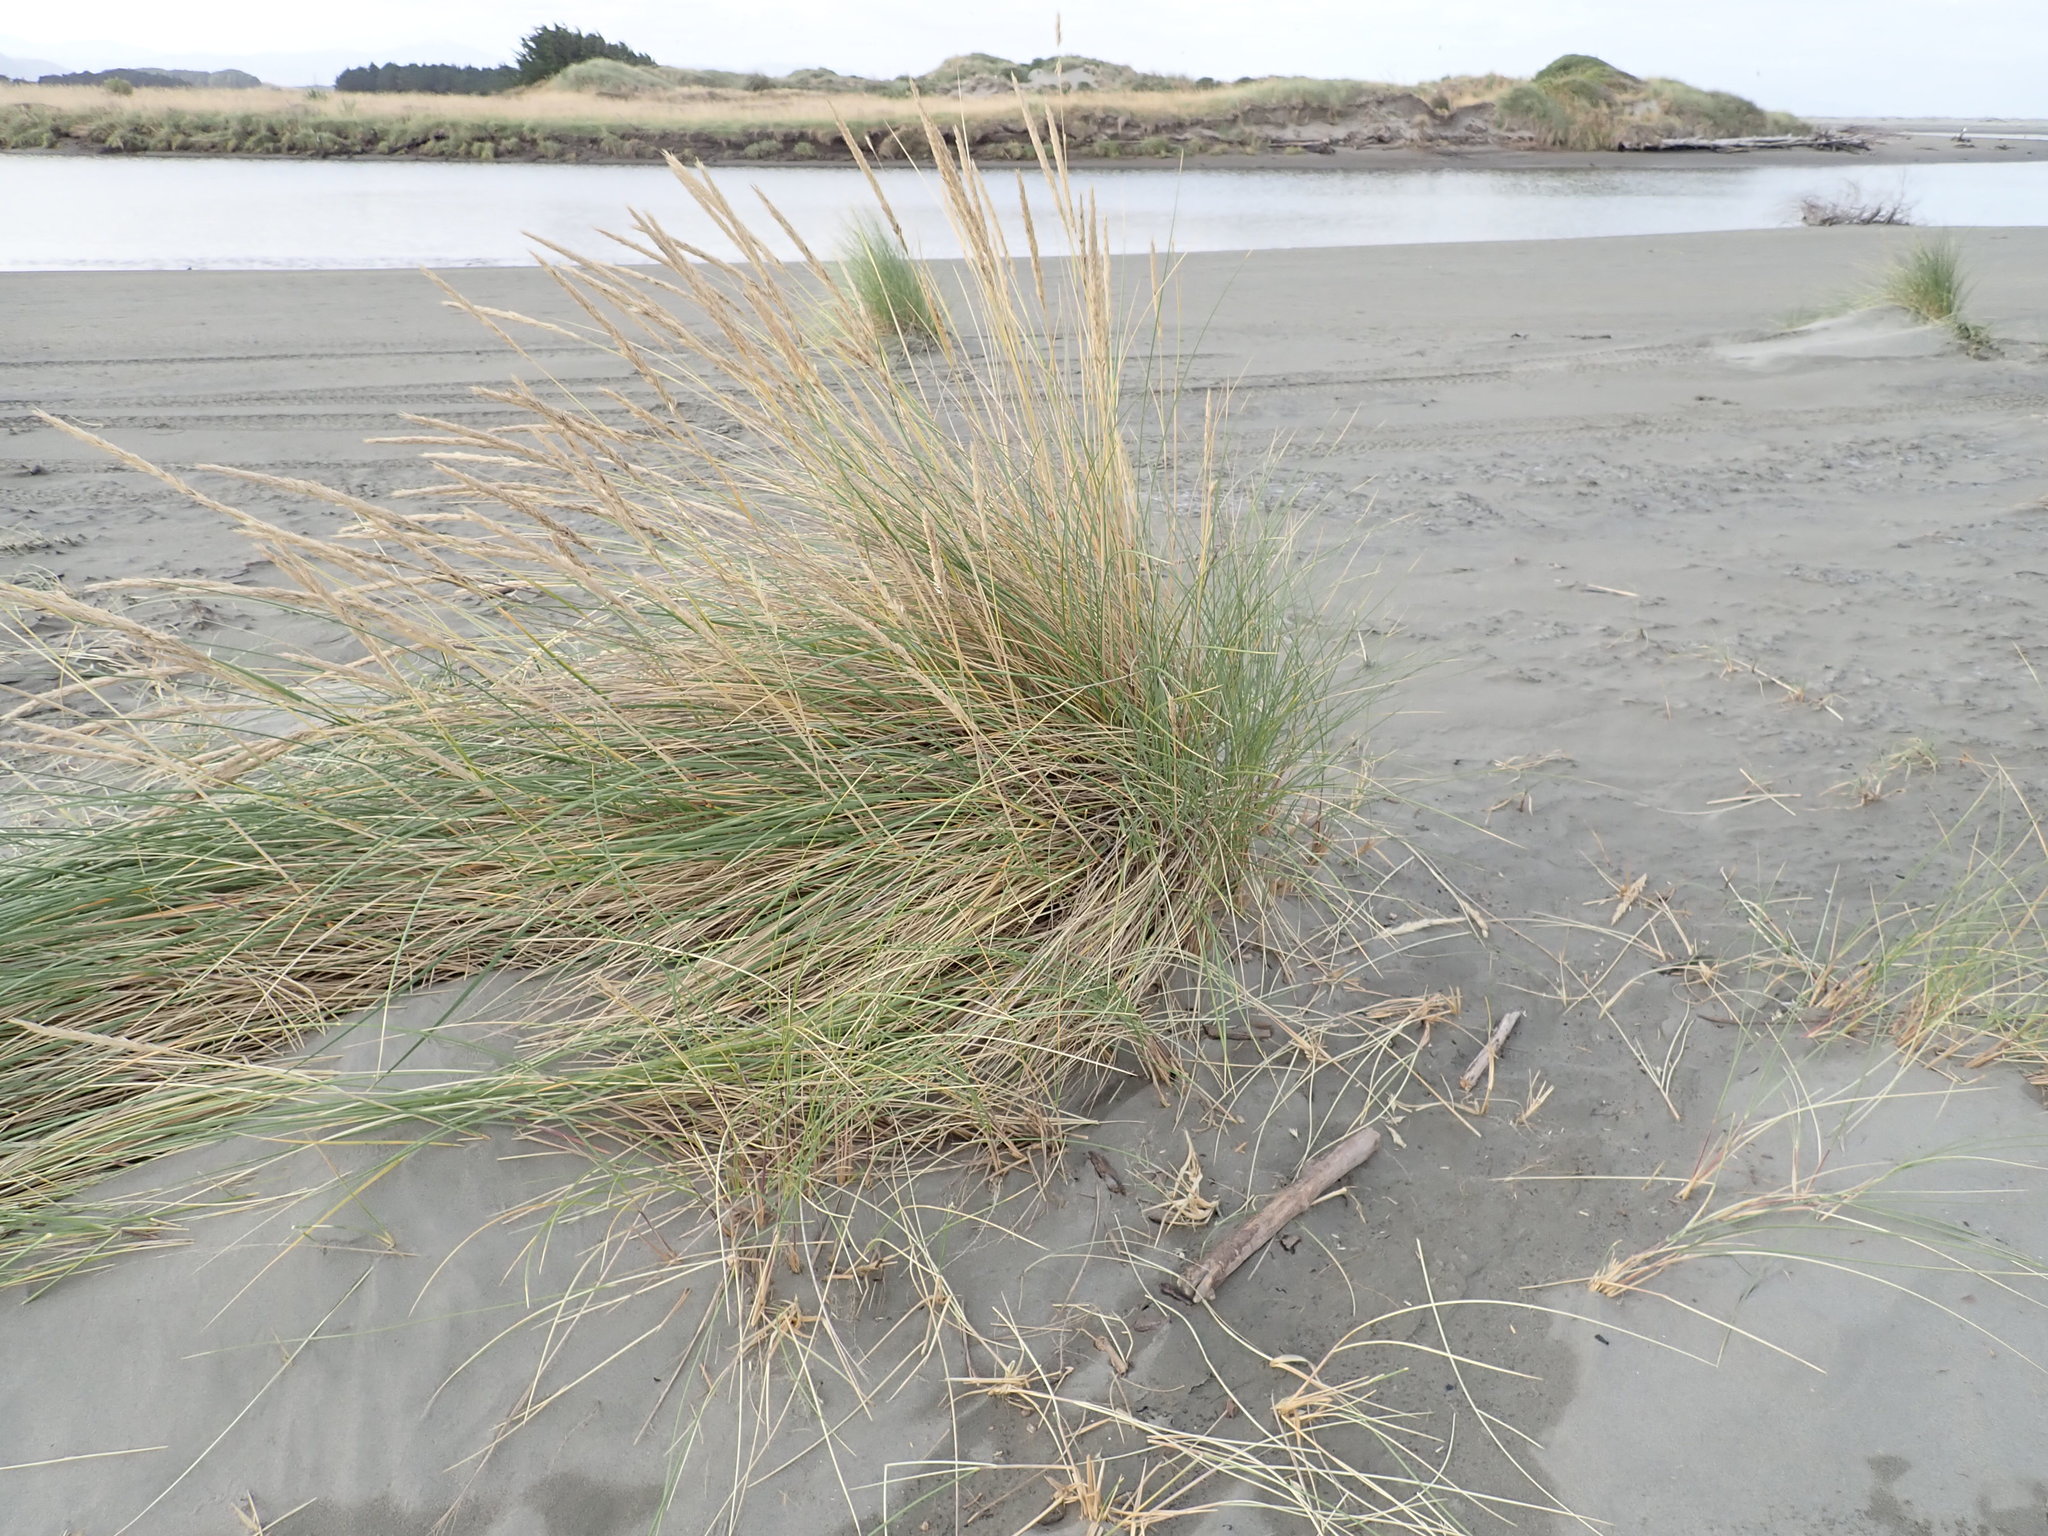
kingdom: Plantae
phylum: Tracheophyta
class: Liliopsida
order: Poales
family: Poaceae
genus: Calamagrostis
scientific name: Calamagrostis arenaria
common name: European beachgrass
